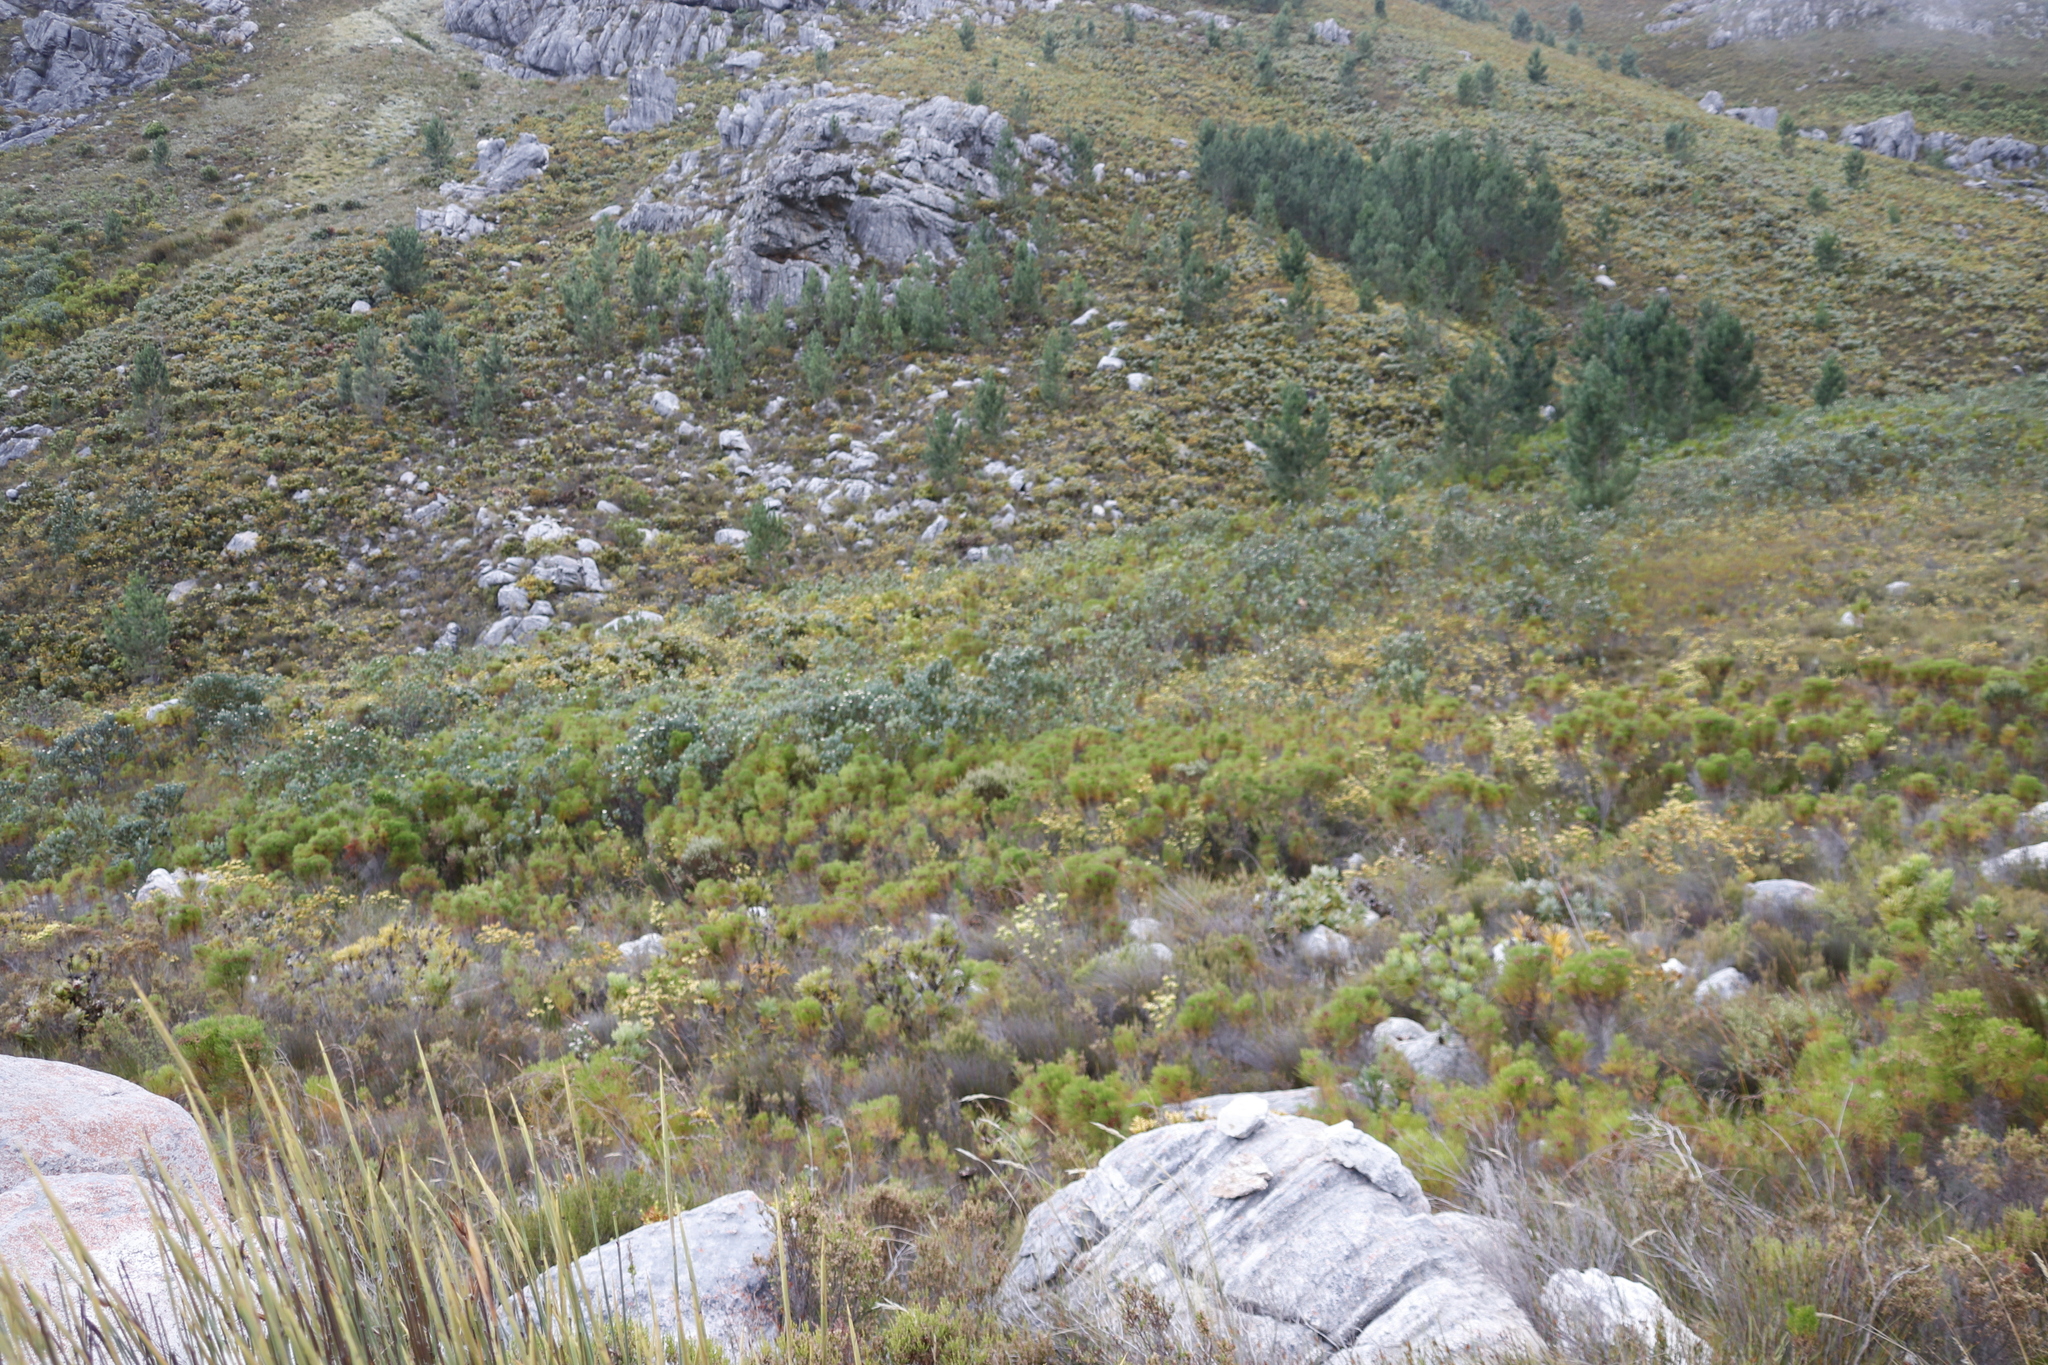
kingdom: Plantae
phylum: Tracheophyta
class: Magnoliopsida
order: Proteales
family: Proteaceae
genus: Protea
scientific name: Protea lacticolor
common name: Hottentot sugarbush
